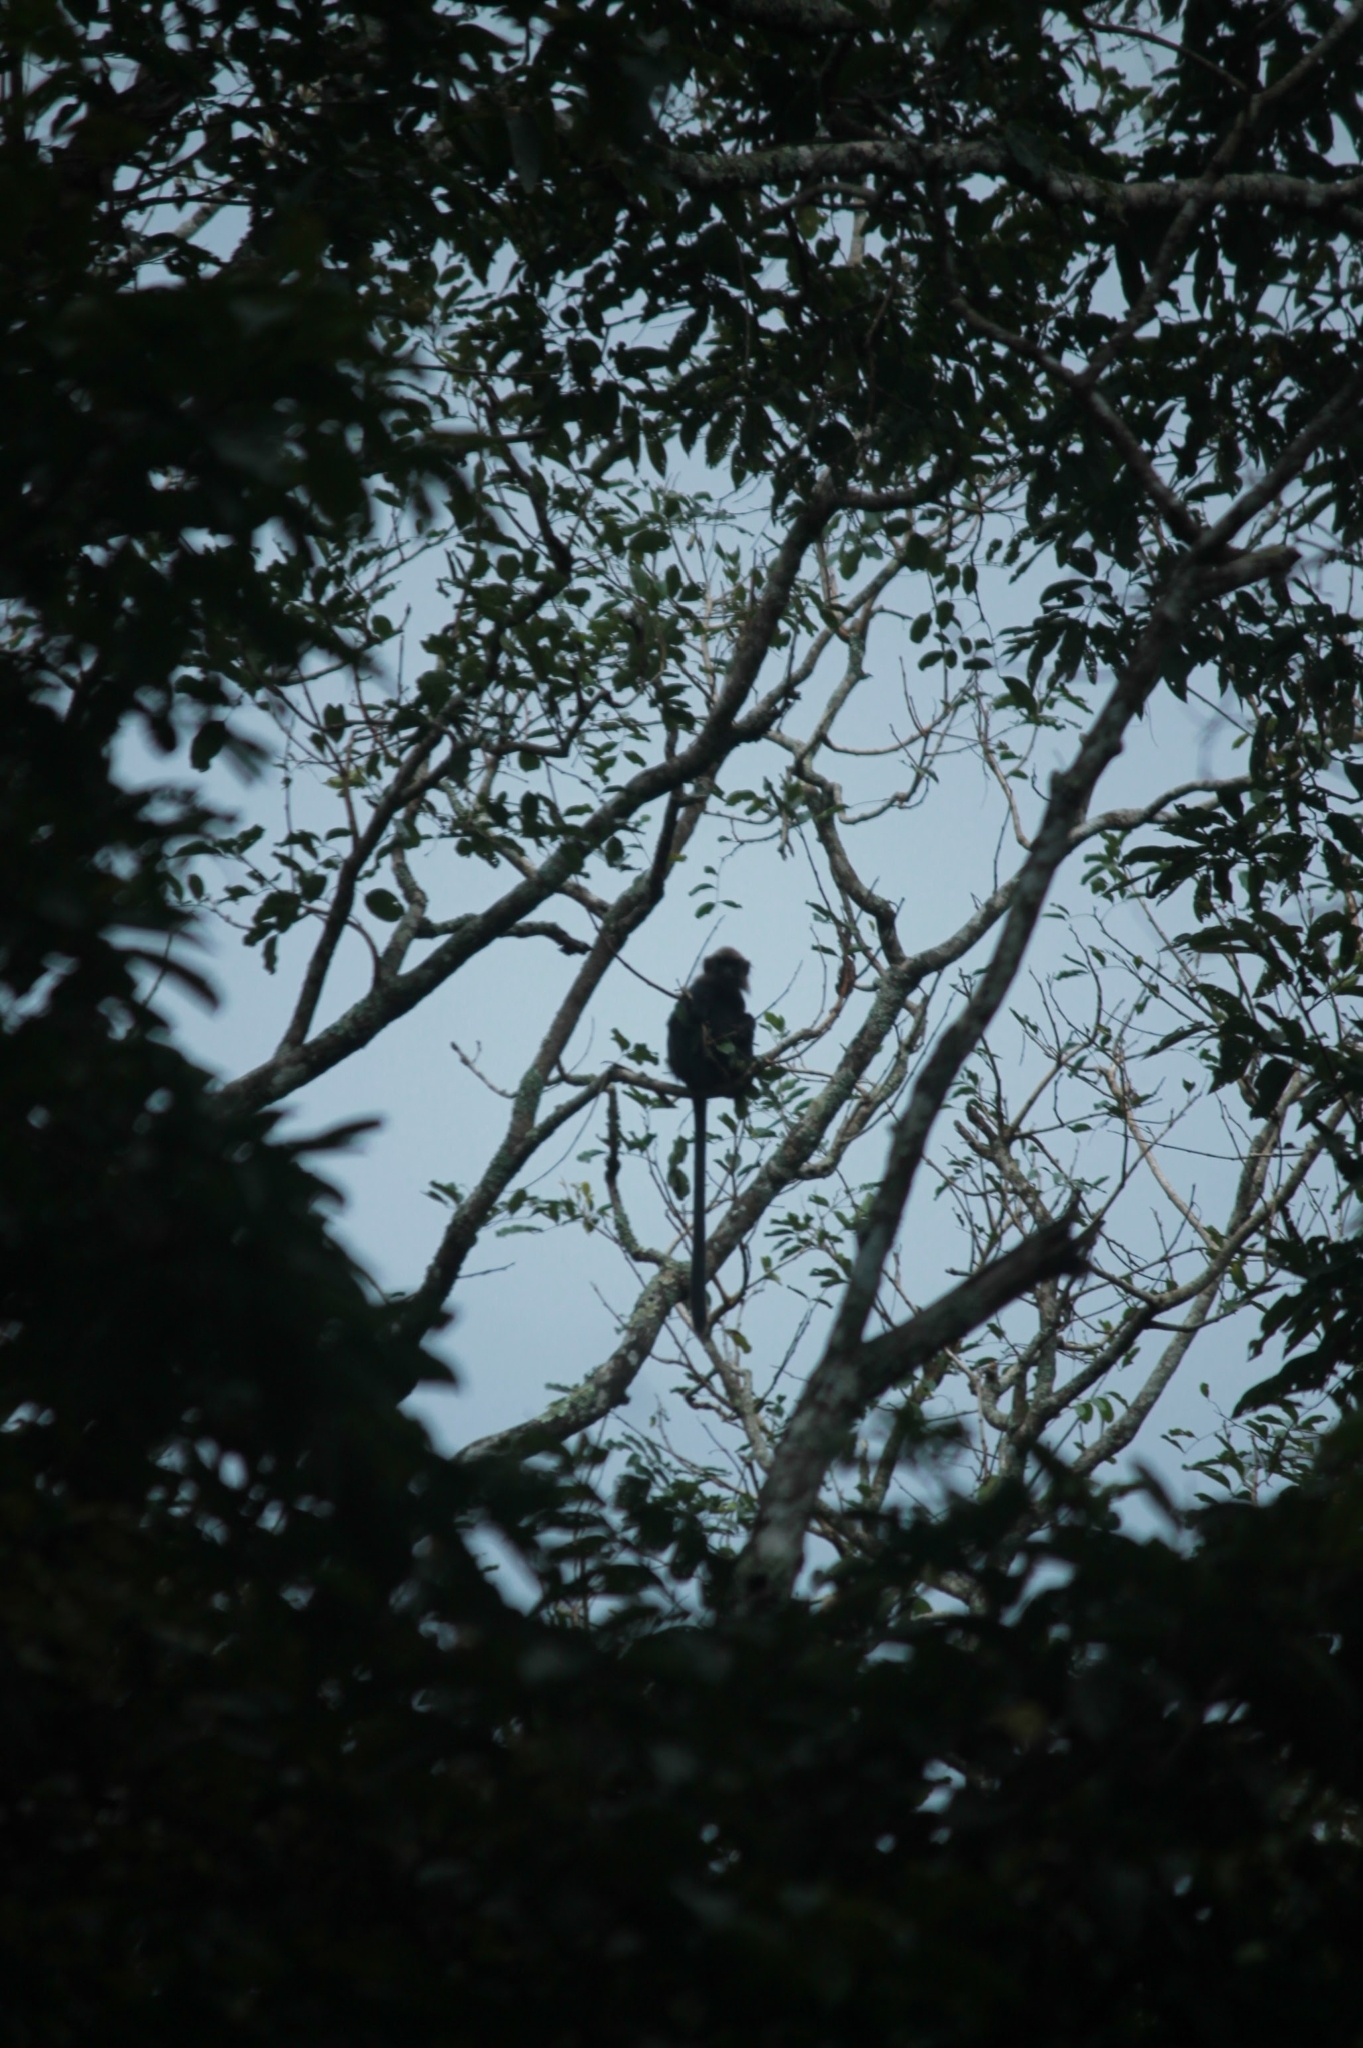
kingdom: Animalia
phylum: Chordata
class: Mammalia
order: Primates
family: Cercopithecidae
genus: Semnopithecus
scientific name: Semnopithecus johnii
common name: Nilgiri langur
